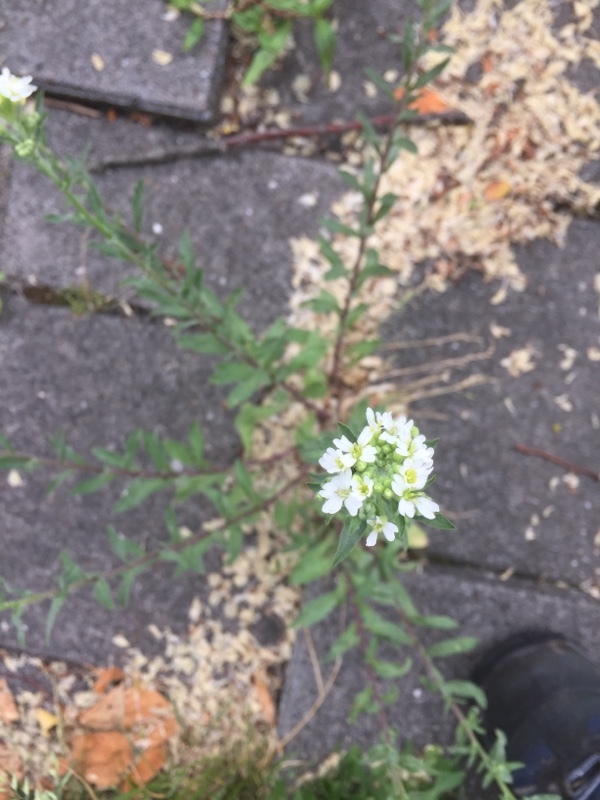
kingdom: Plantae
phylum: Tracheophyta
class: Magnoliopsida
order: Brassicales
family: Brassicaceae
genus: Berteroa
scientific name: Berteroa incana
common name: Hoary alison
